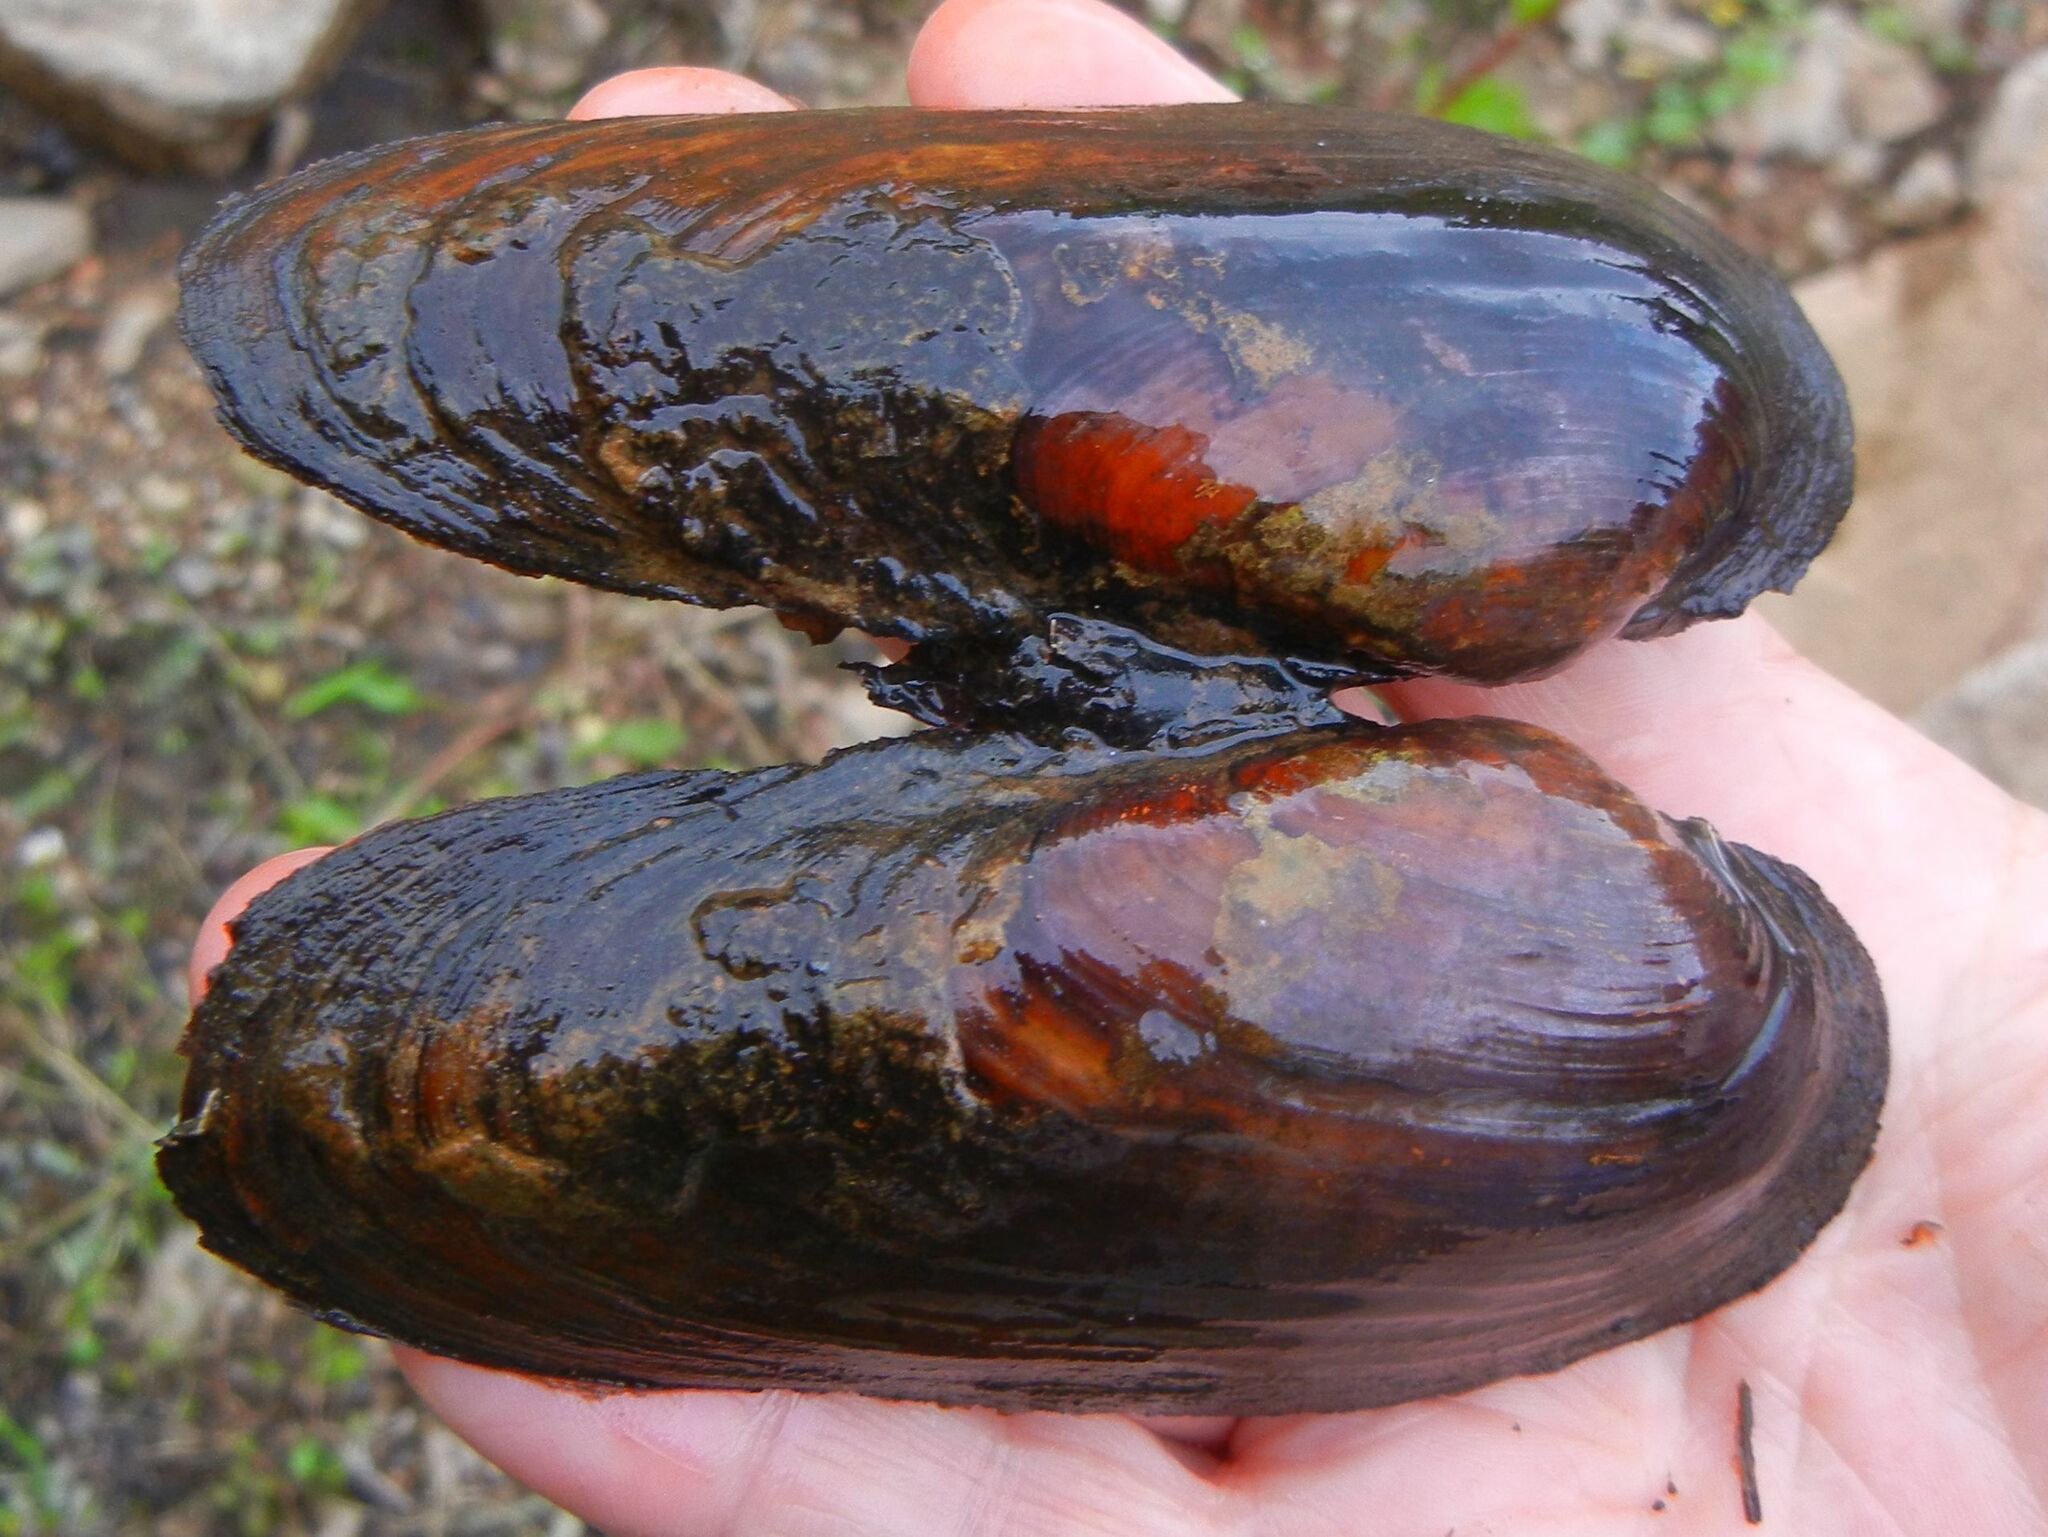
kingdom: Animalia
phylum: Mollusca
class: Bivalvia
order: Unionida
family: Unionidae
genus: Unio
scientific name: Unio pictorum
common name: Painter's mussel
